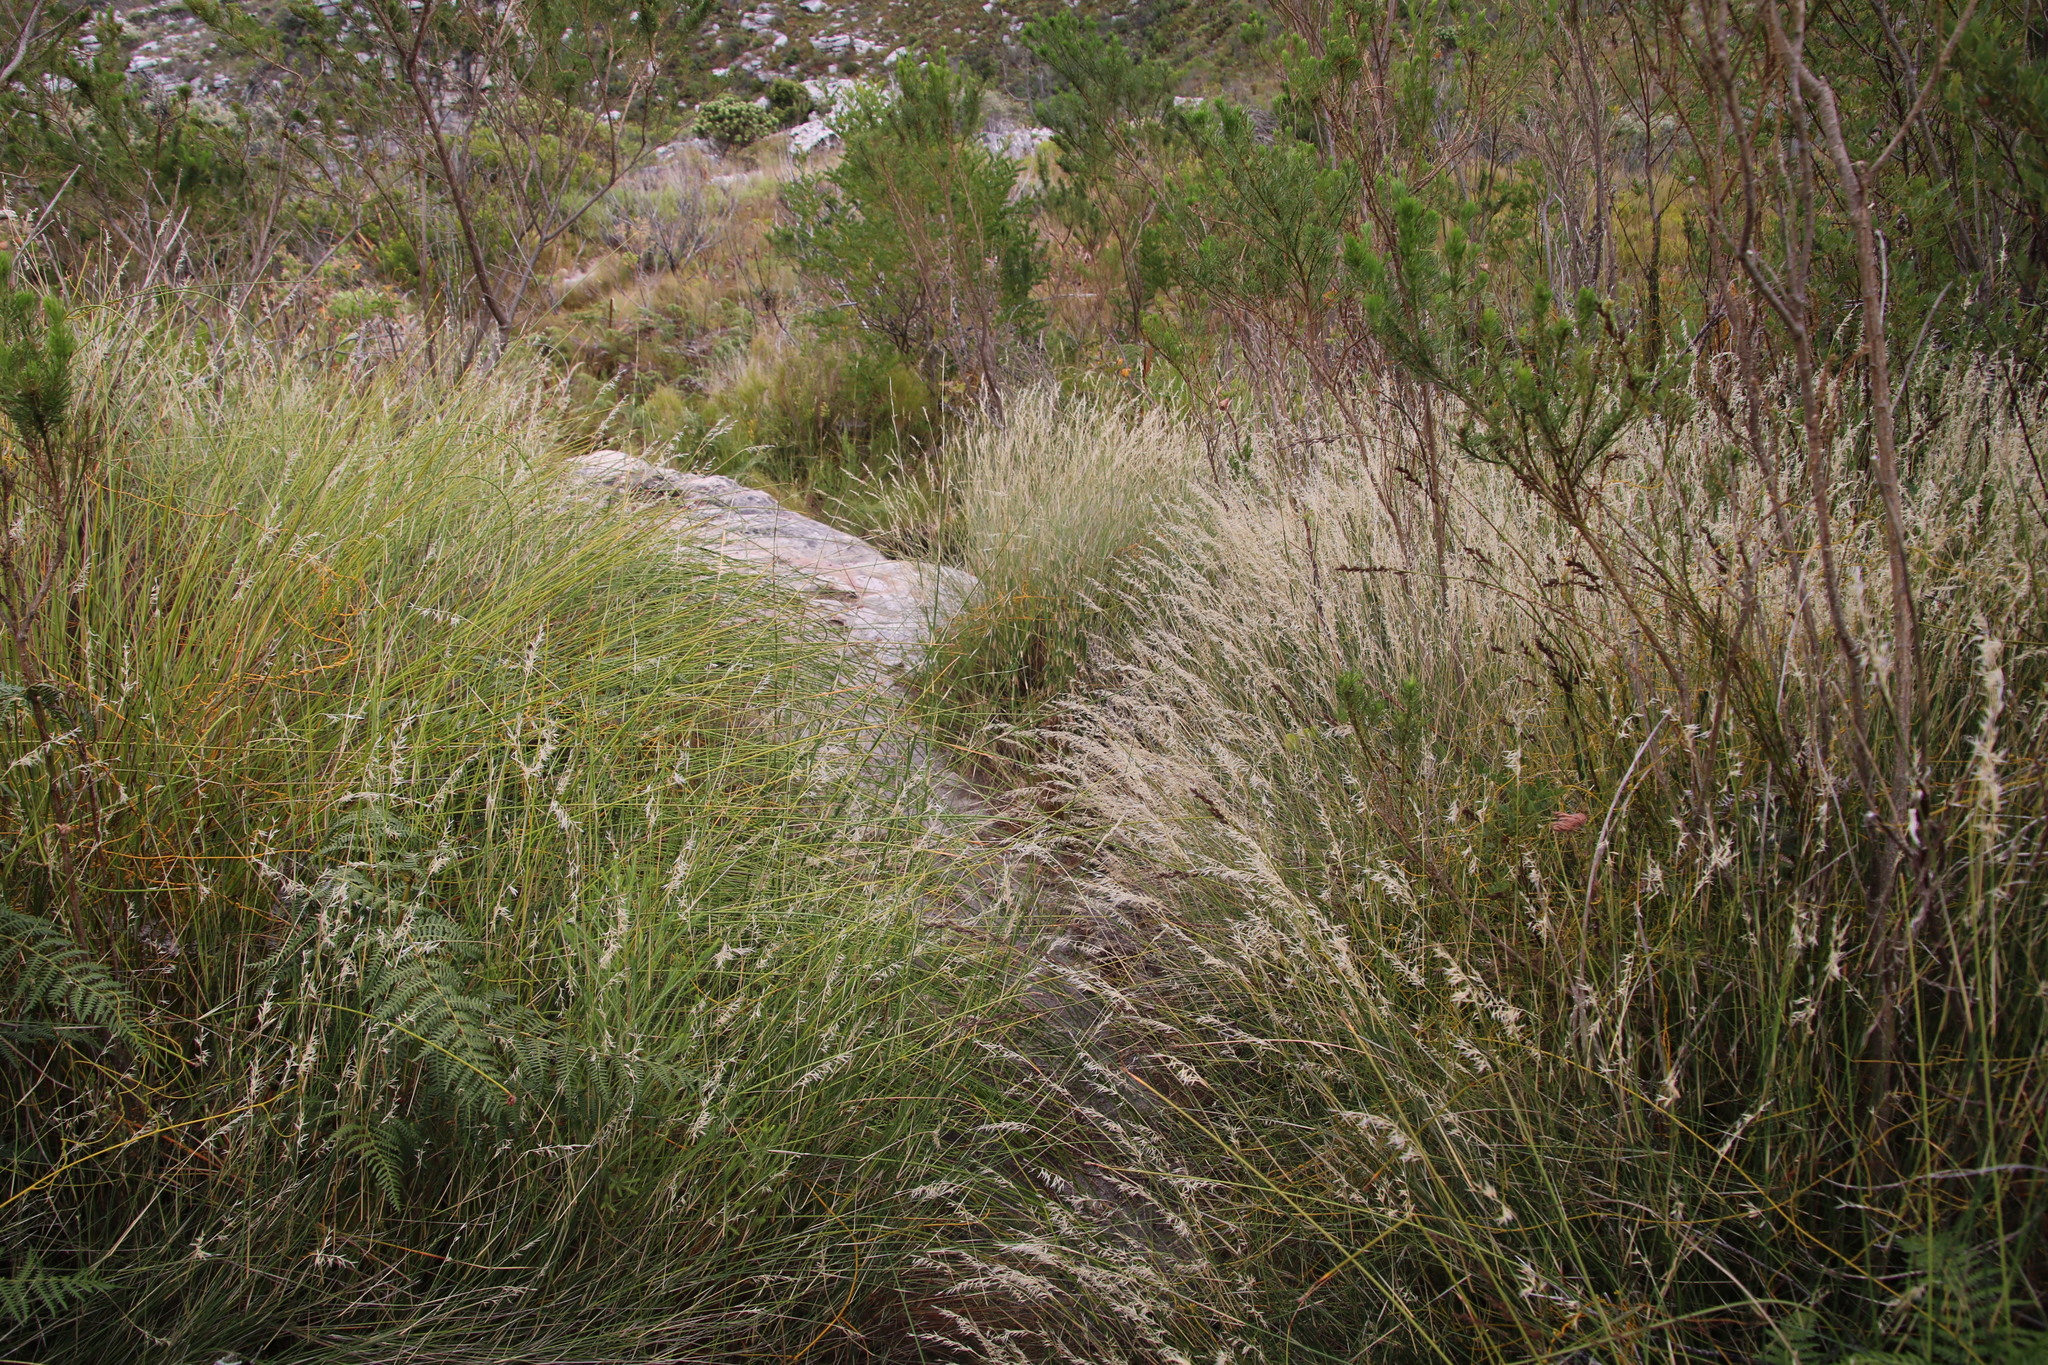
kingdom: Plantae
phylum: Tracheophyta
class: Liliopsida
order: Poales
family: Poaceae
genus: Ehrharta
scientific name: Ehrharta ramosa
